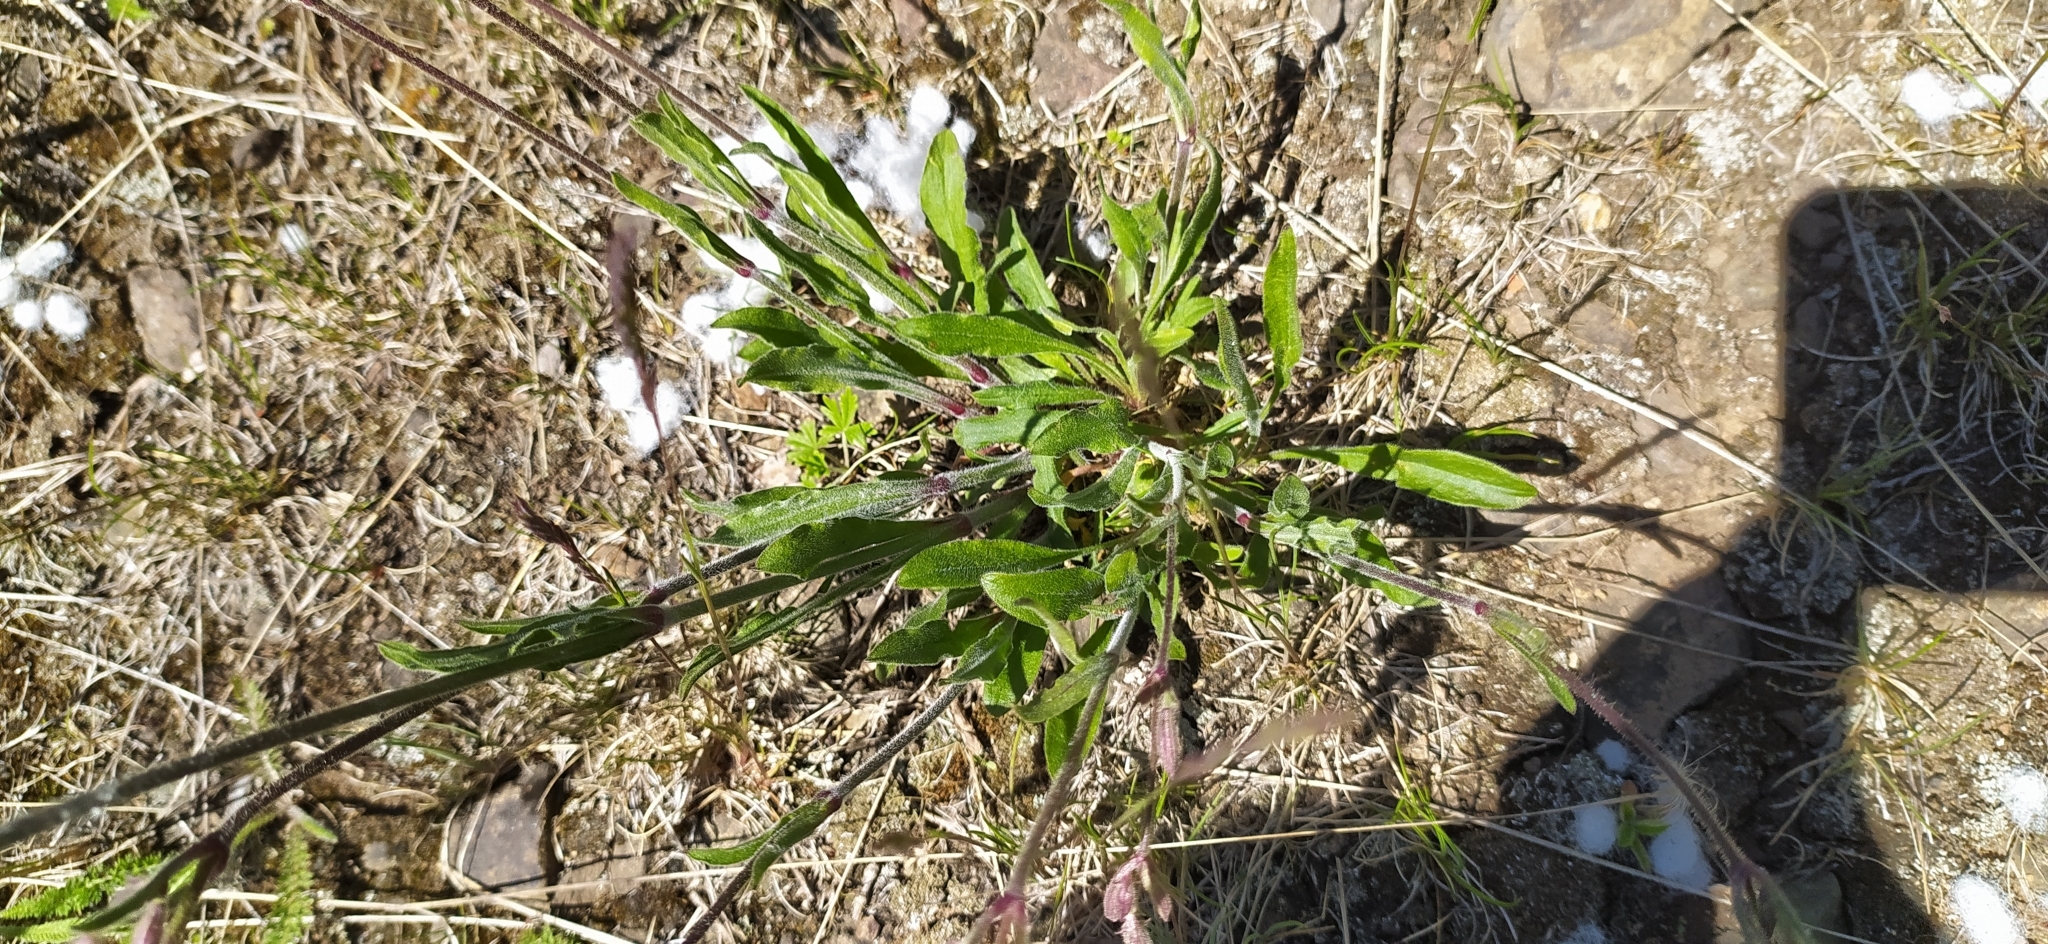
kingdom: Plantae
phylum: Tracheophyta
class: Magnoliopsida
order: Caryophyllales
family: Caryophyllaceae
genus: Silene
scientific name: Silene nutans
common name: Nottingham catchfly
